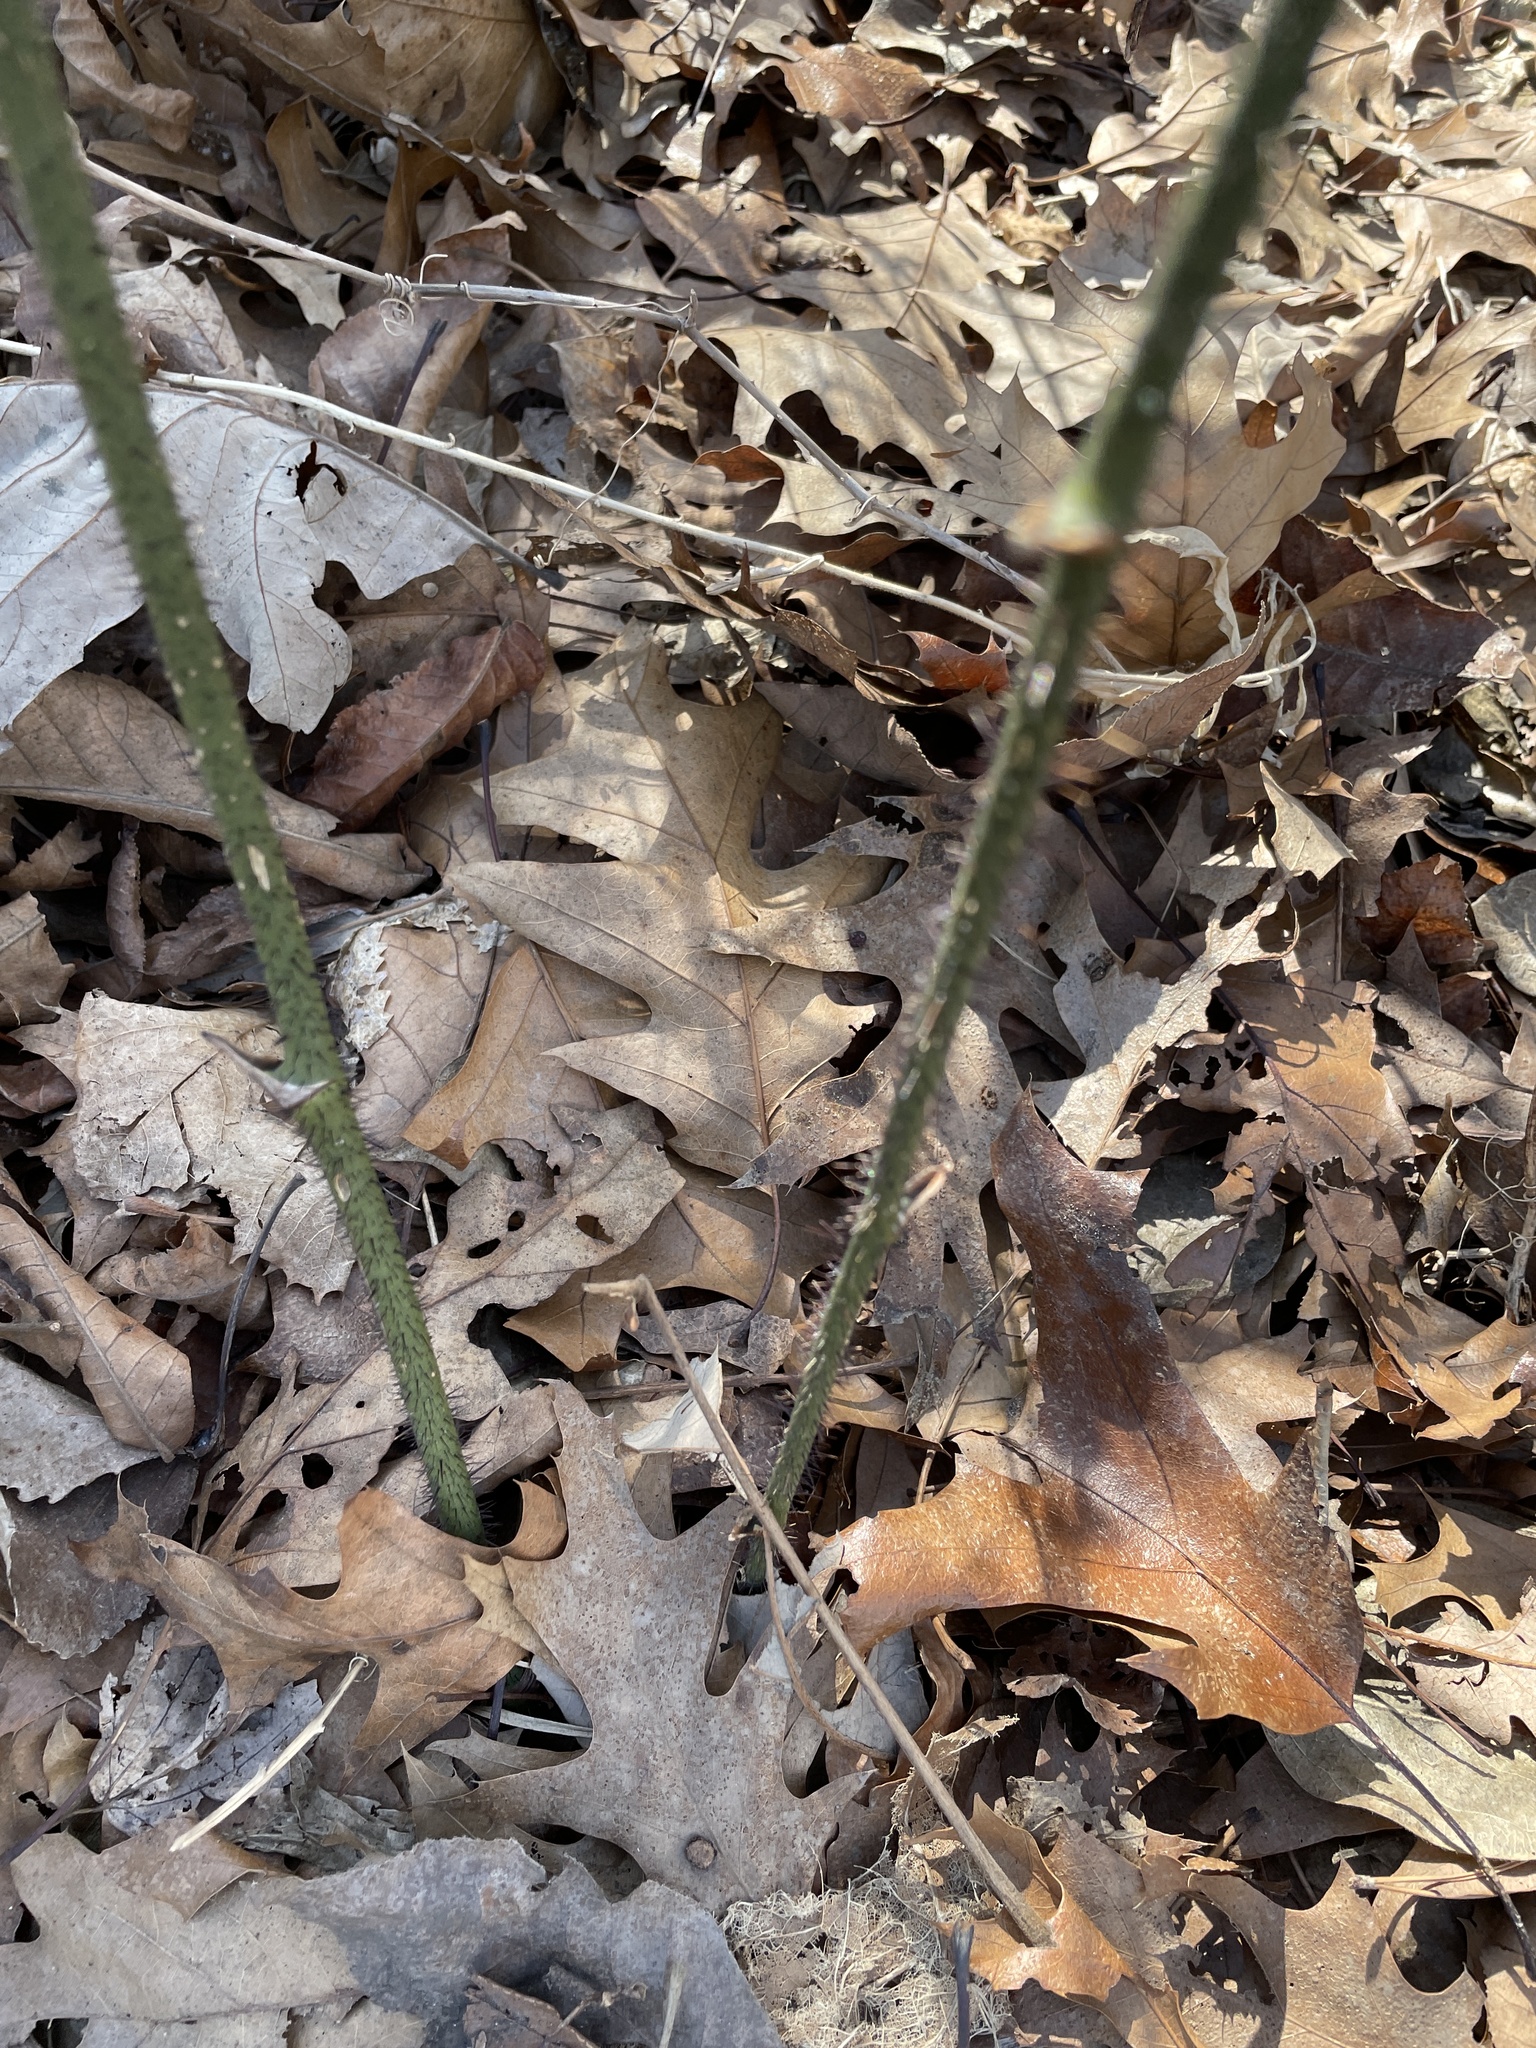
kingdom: Plantae
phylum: Tracheophyta
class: Liliopsida
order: Liliales
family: Smilacaceae
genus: Smilax
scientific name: Smilax tamnoides
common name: Hellfetter
